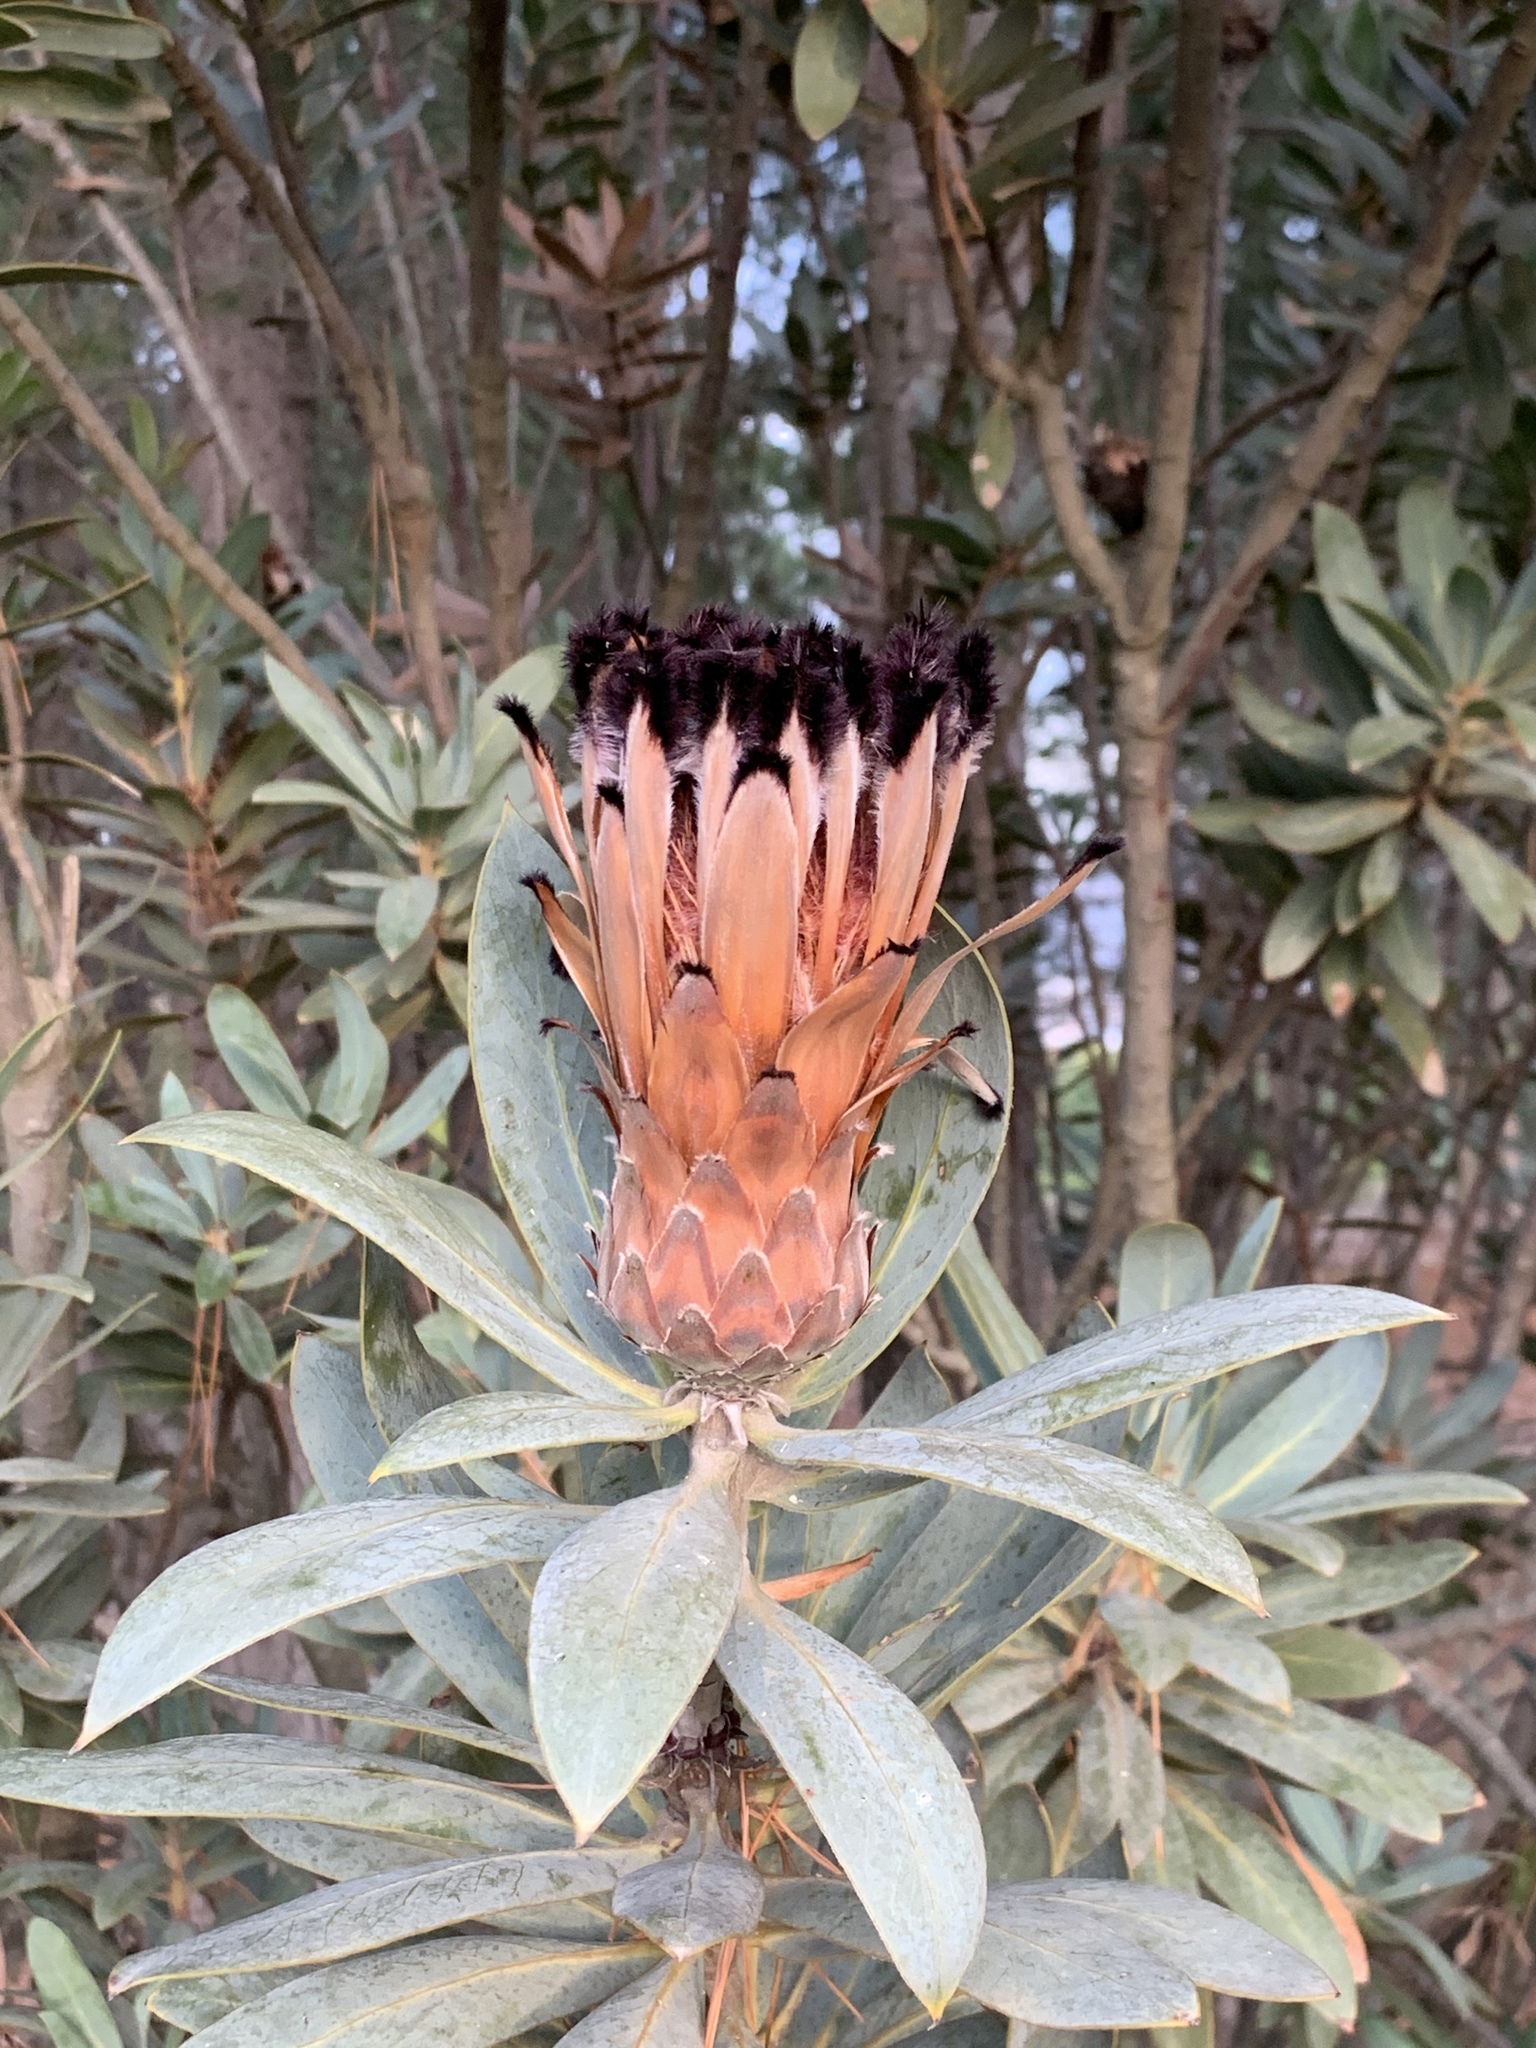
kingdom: Plantae
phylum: Tracheophyta
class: Magnoliopsida
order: Proteales
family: Proteaceae
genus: Protea
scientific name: Protea laurifolia
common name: Grey-leaf sugarbsh
